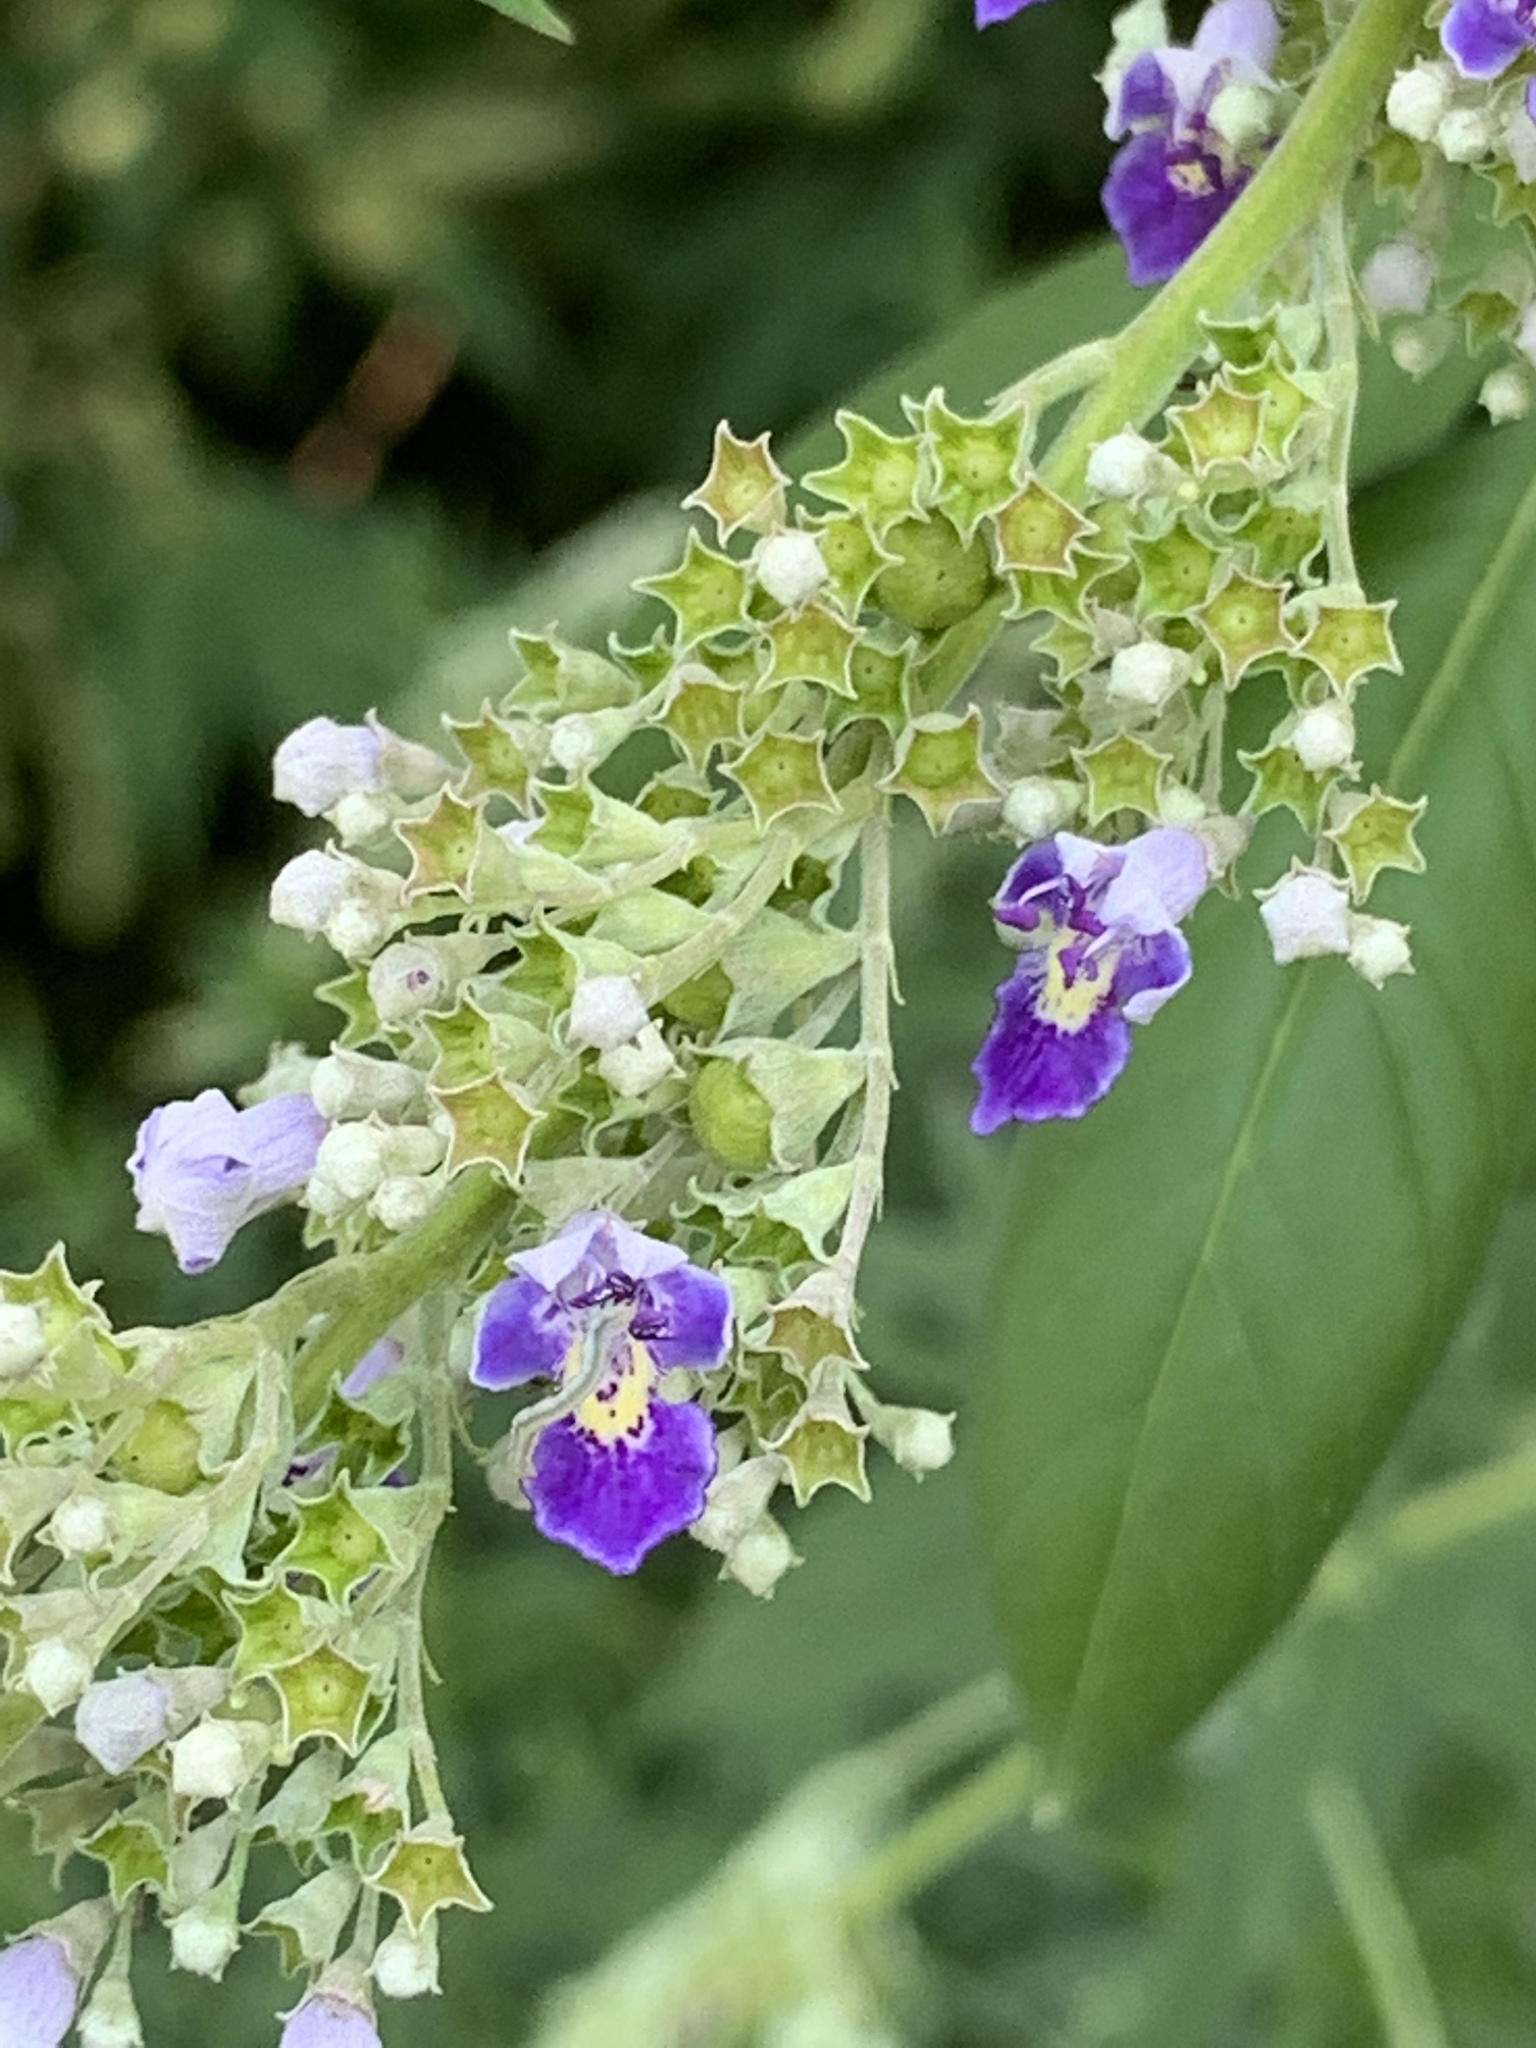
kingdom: Plantae
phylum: Tracheophyta
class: Magnoliopsida
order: Lamiales
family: Lamiaceae
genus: Vitex
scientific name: Vitex negundo
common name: Chinese chastetree
